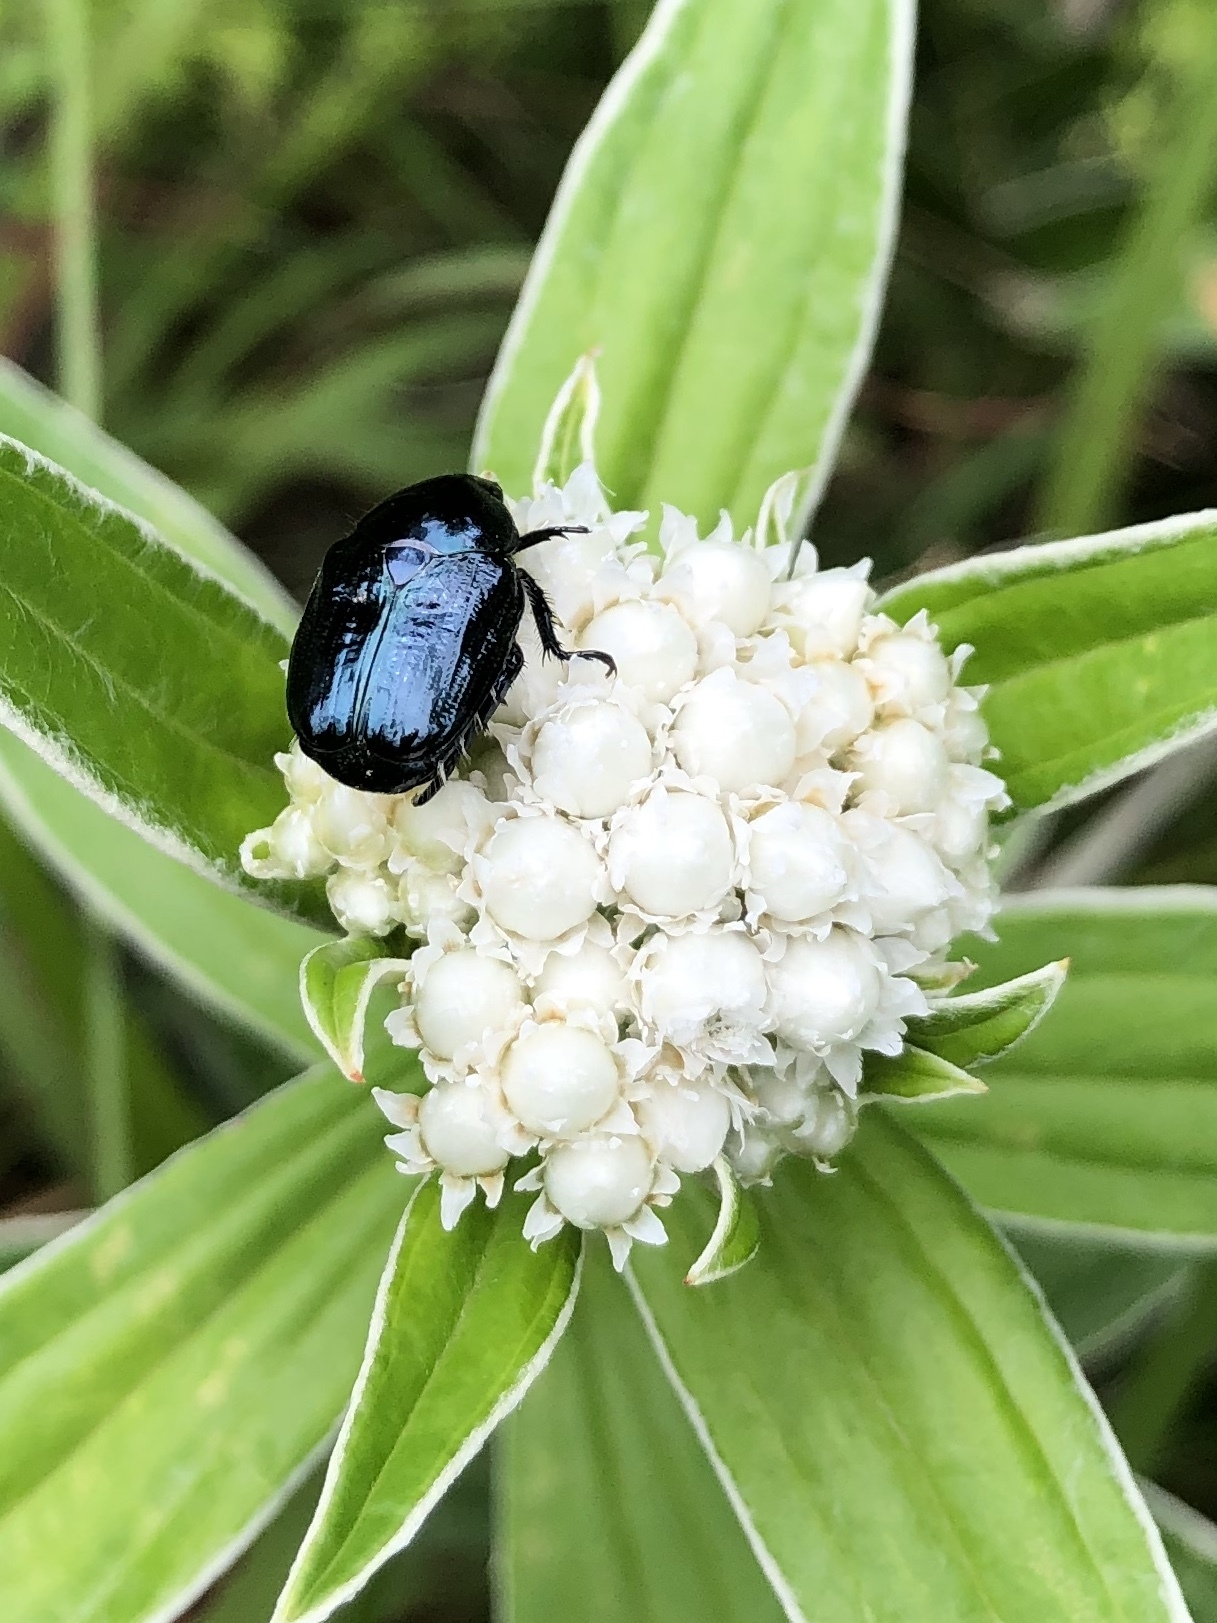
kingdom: Animalia
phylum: Arthropoda
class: Insecta
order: Coleoptera
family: Scarabaeidae
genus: Popillia
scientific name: Popillia cyanea
